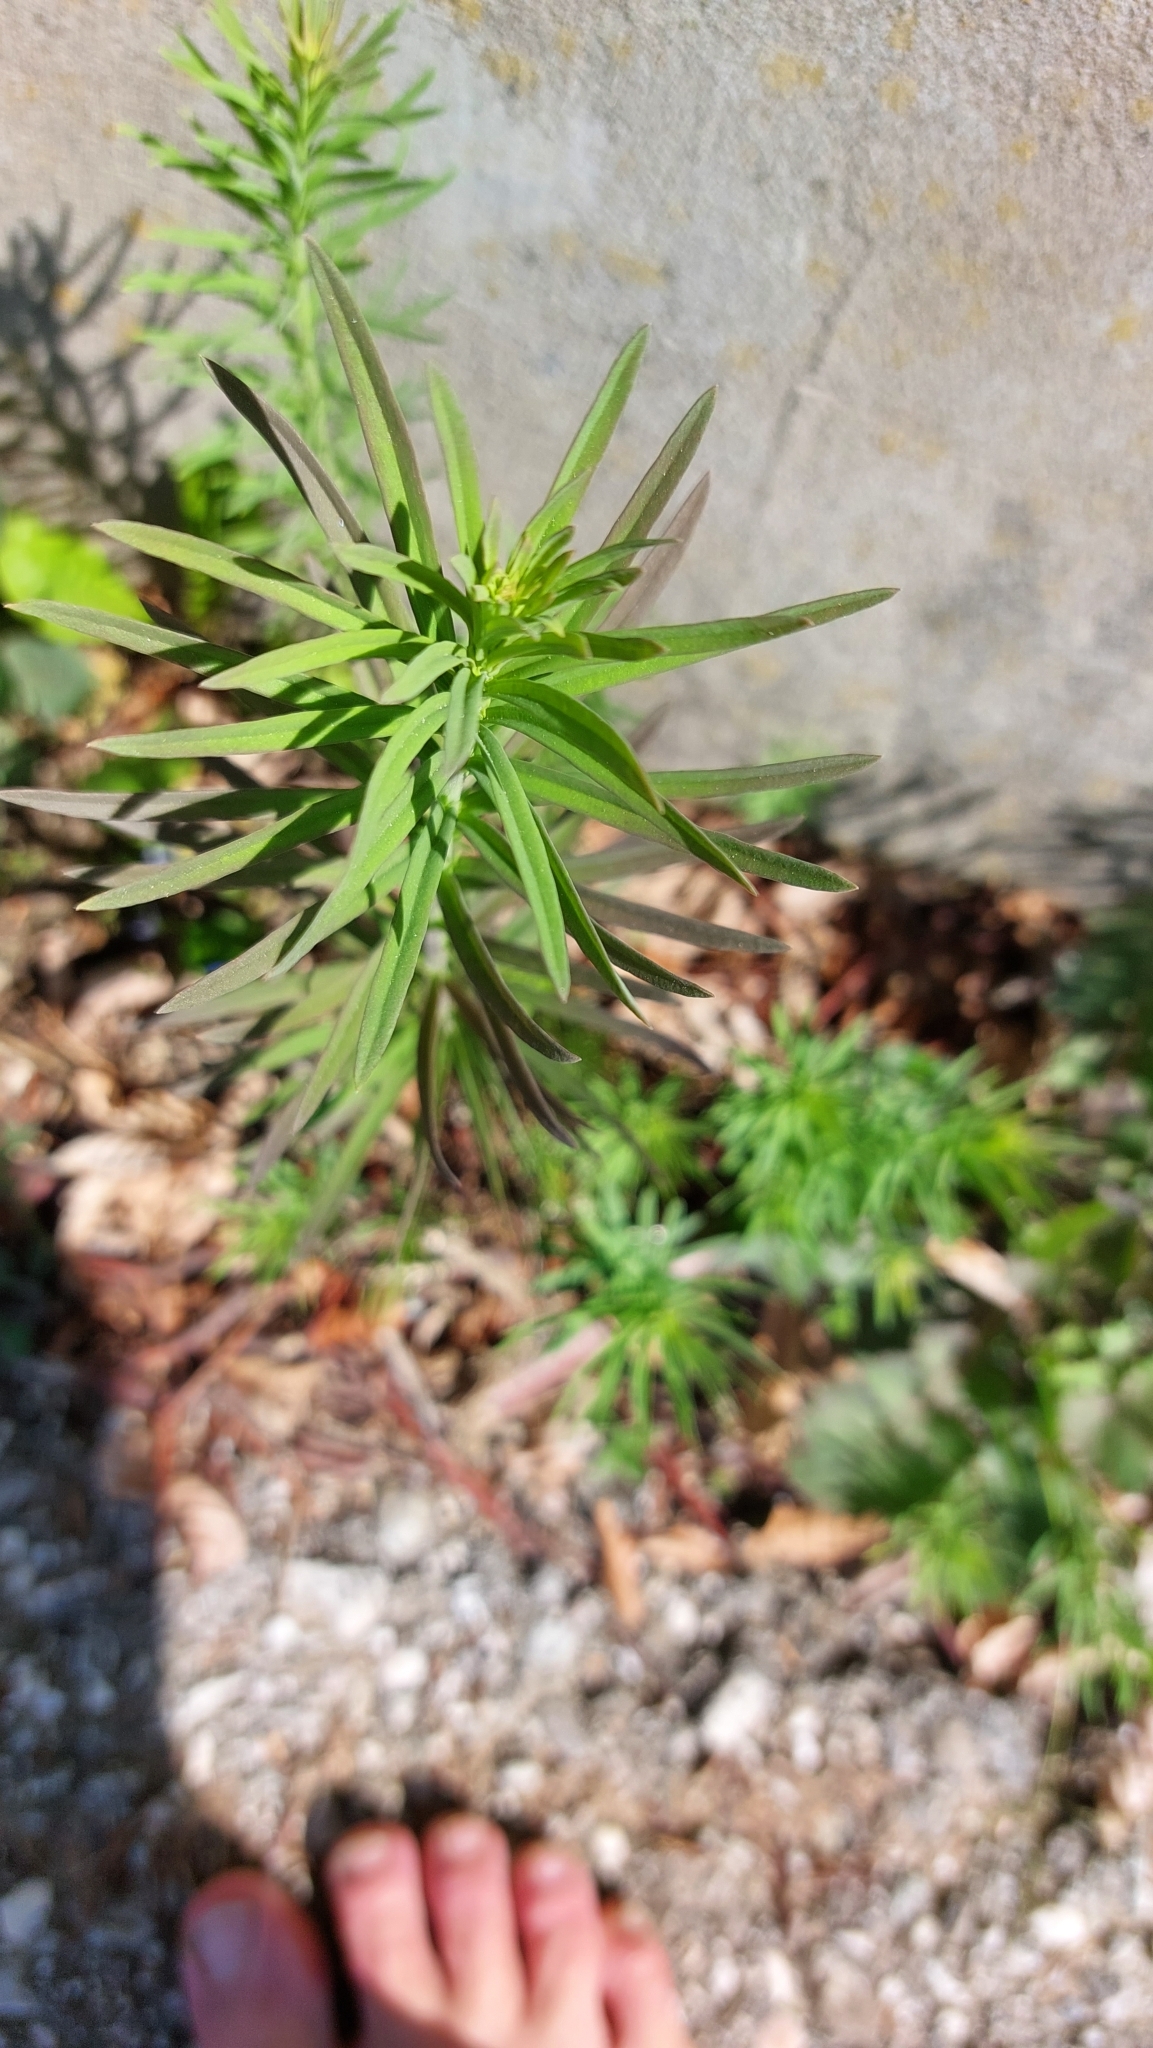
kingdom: Plantae
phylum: Tracheophyta
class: Magnoliopsida
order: Lamiales
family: Plantaginaceae
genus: Linaria
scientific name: Linaria vulgaris
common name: Butter and eggs
